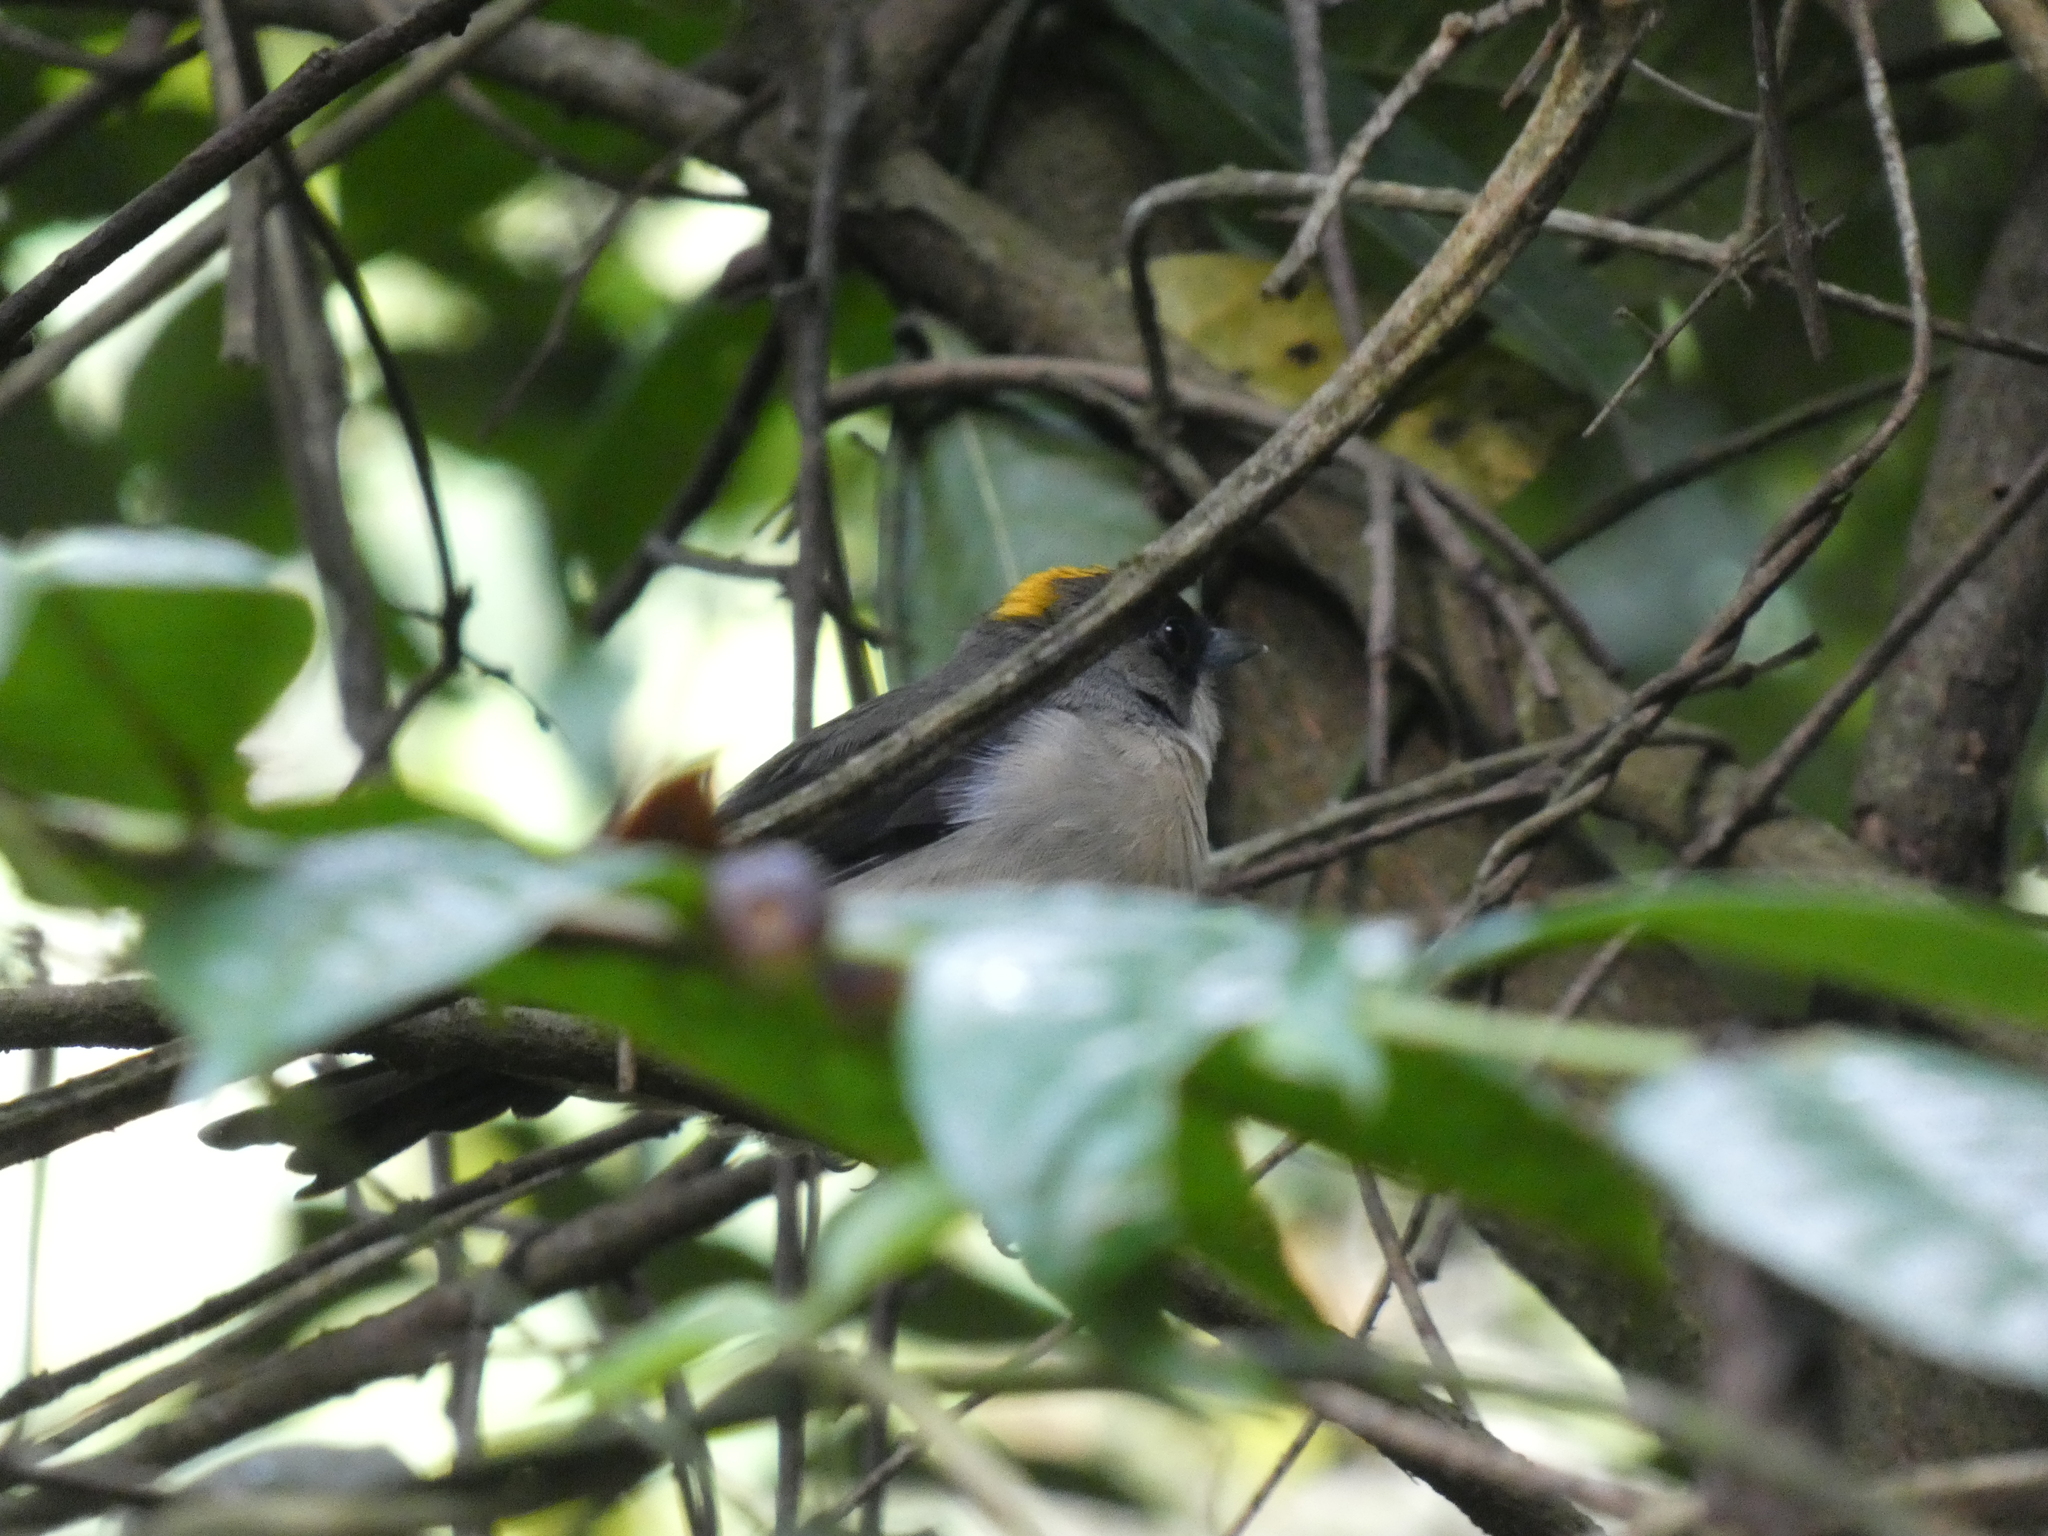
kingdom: Animalia
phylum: Chordata
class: Aves
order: Passeriformes
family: Thraupidae
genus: Trichothraupis
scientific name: Trichothraupis melanops
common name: Black-goggled tanager
